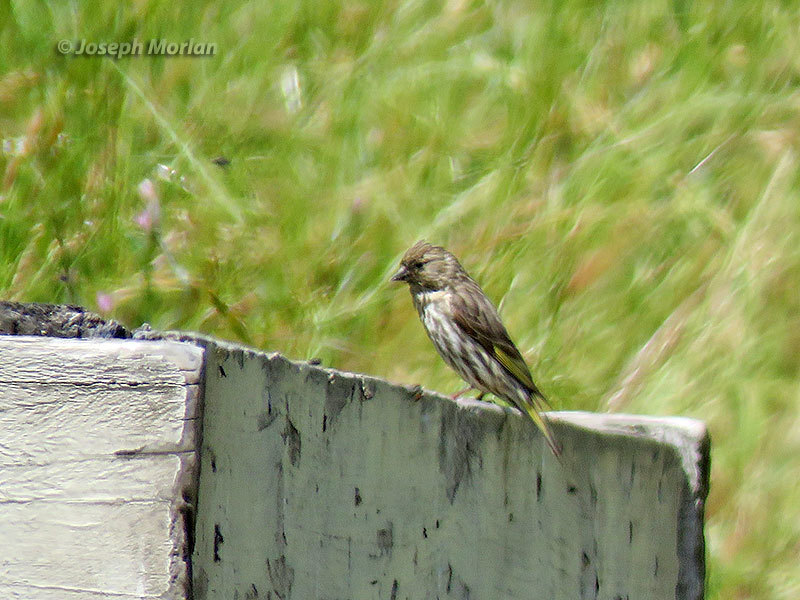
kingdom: Animalia
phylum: Chordata
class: Aves
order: Passeriformes
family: Fringillidae
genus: Spinus
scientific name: Spinus pinus
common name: Pine siskin
